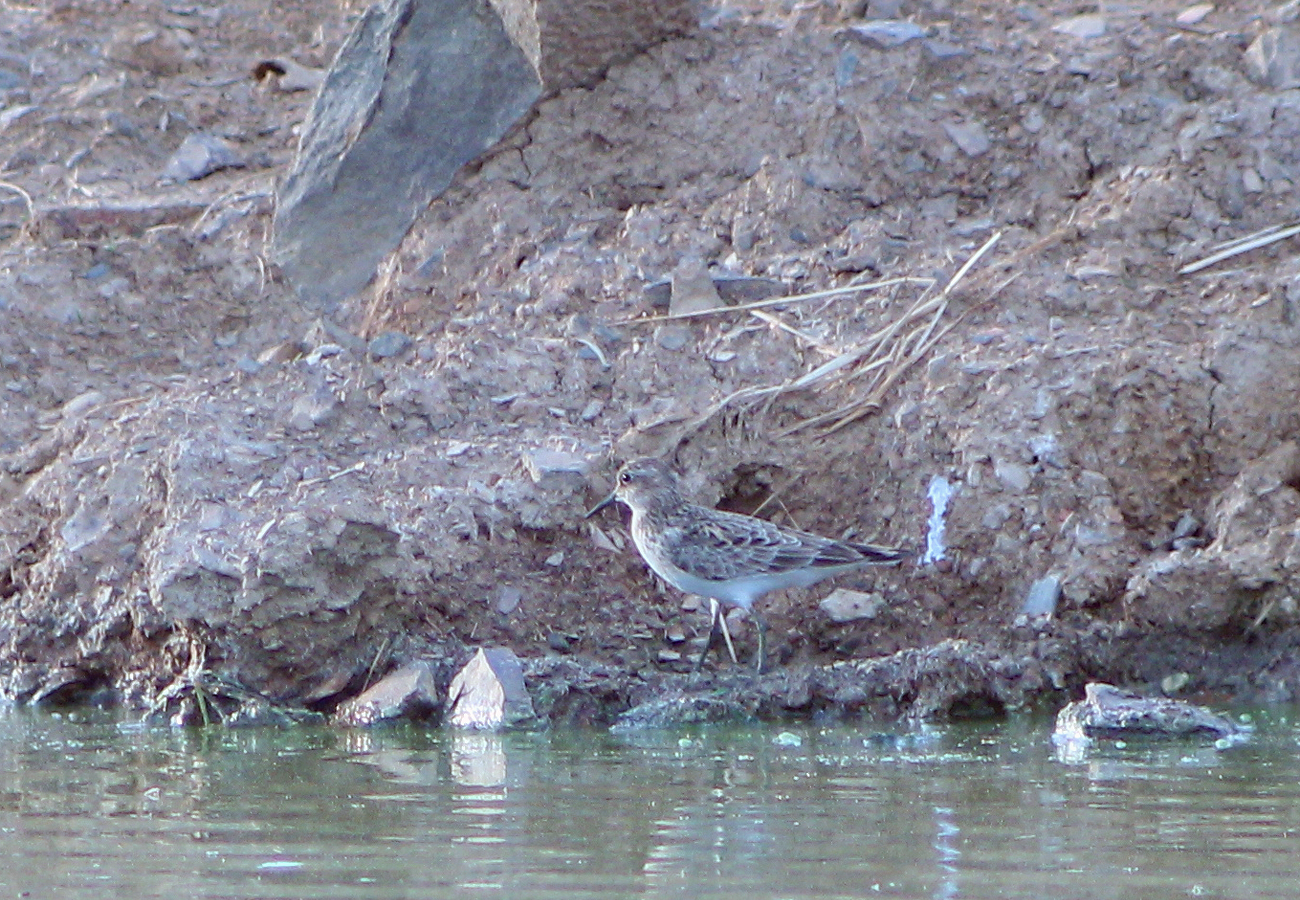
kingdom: Animalia
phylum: Chordata
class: Aves
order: Charadriiformes
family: Scolopacidae
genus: Calidris
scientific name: Calidris minutilla
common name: Least sandpiper
